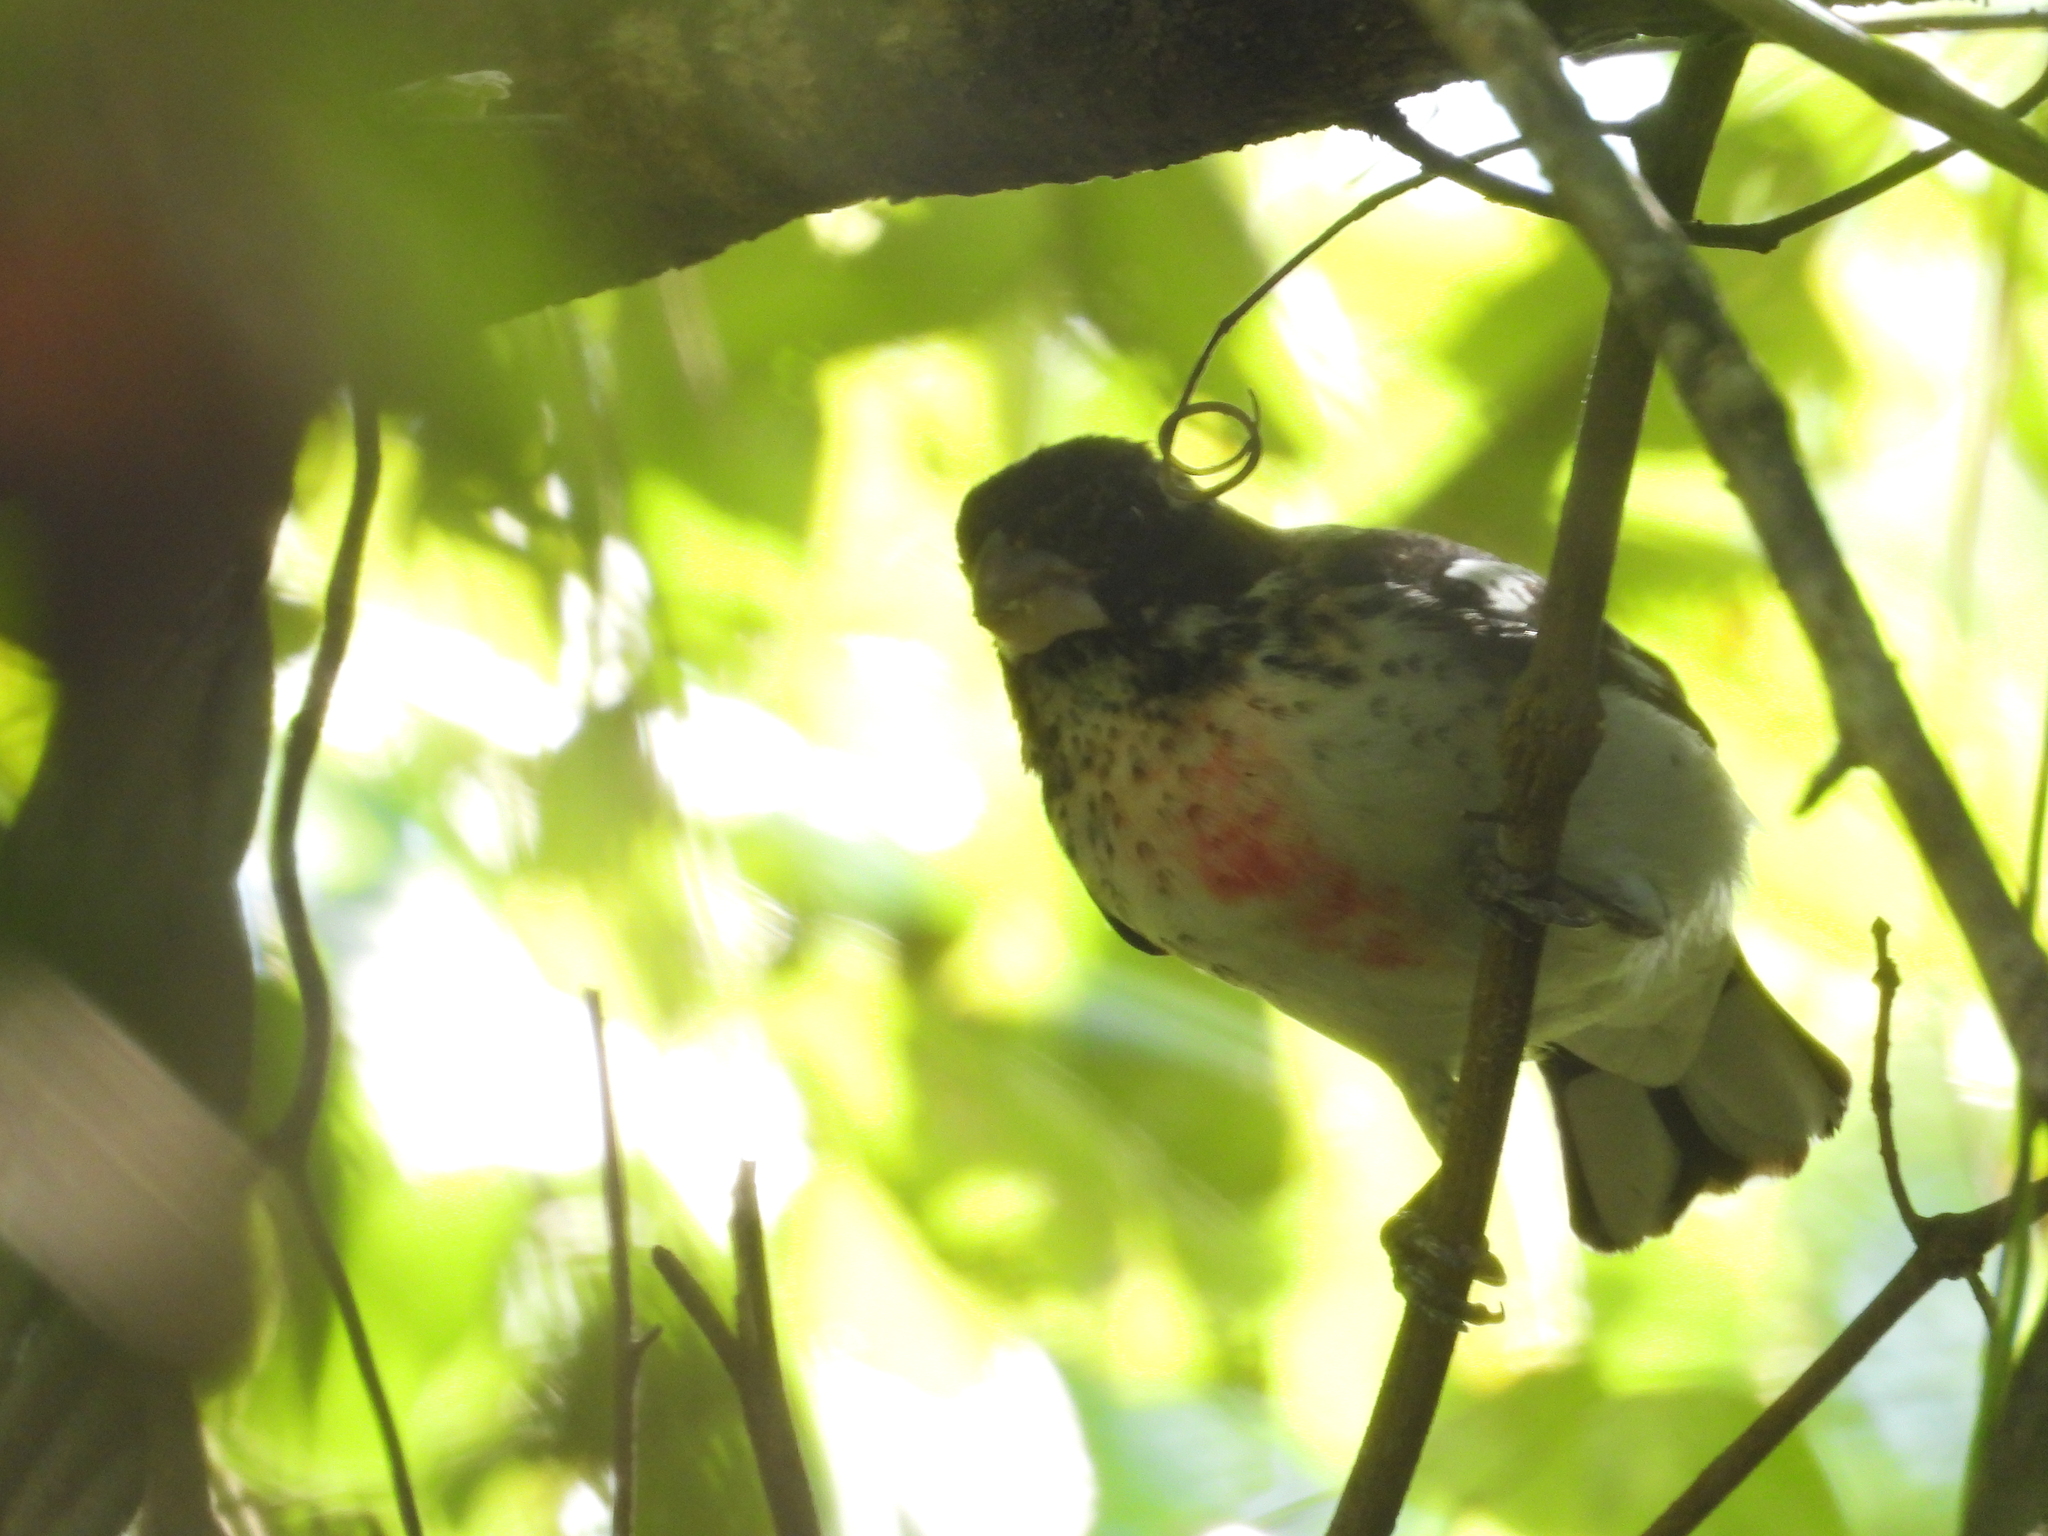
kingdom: Animalia
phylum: Chordata
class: Aves
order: Passeriformes
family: Cardinalidae
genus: Pheucticus
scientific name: Pheucticus ludovicianus
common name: Rose-breasted grosbeak
